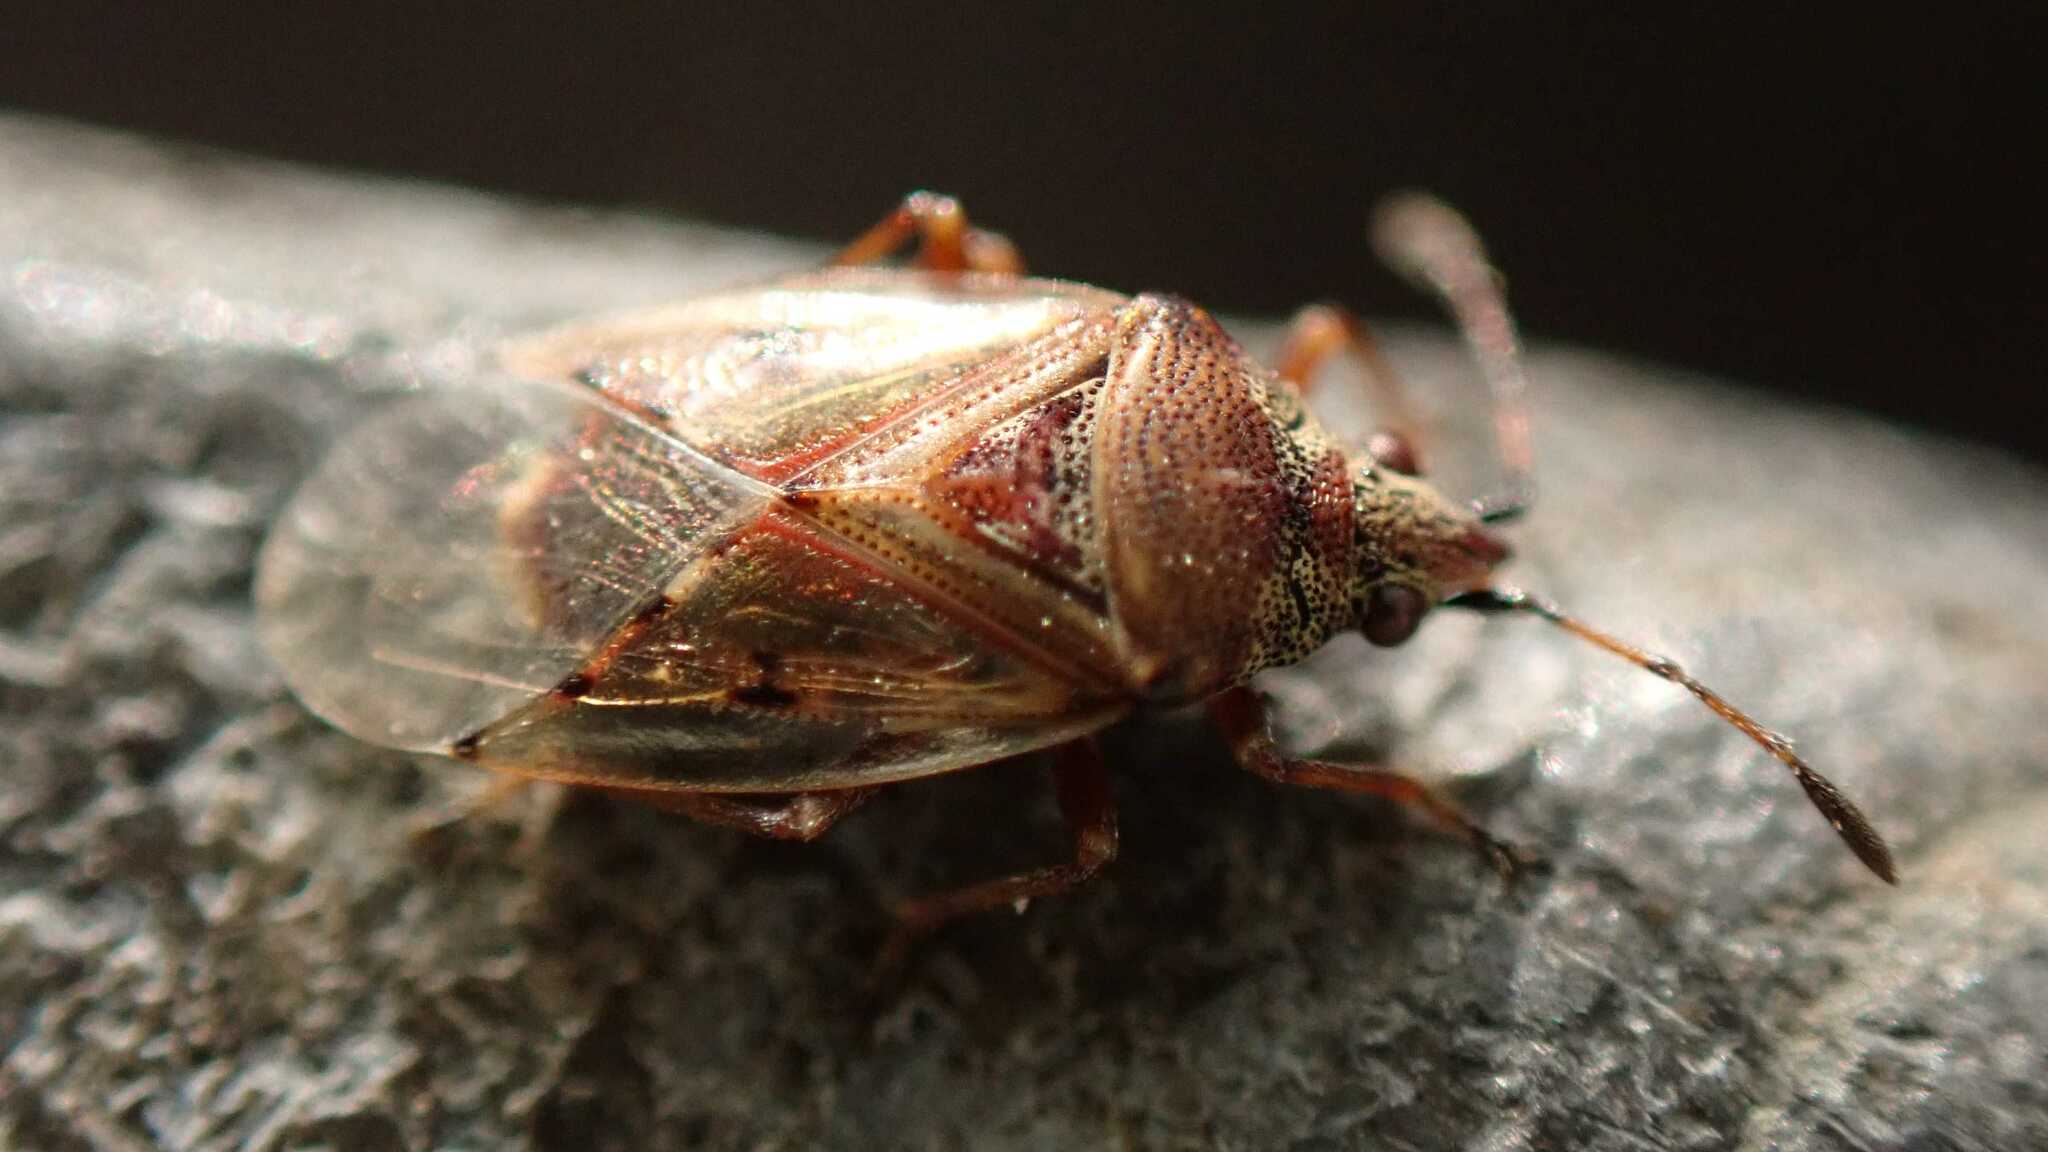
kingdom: Animalia
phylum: Arthropoda
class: Insecta
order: Hemiptera
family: Lygaeidae
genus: Kleidocerys
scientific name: Kleidocerys resedae
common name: Birch catkin bug
